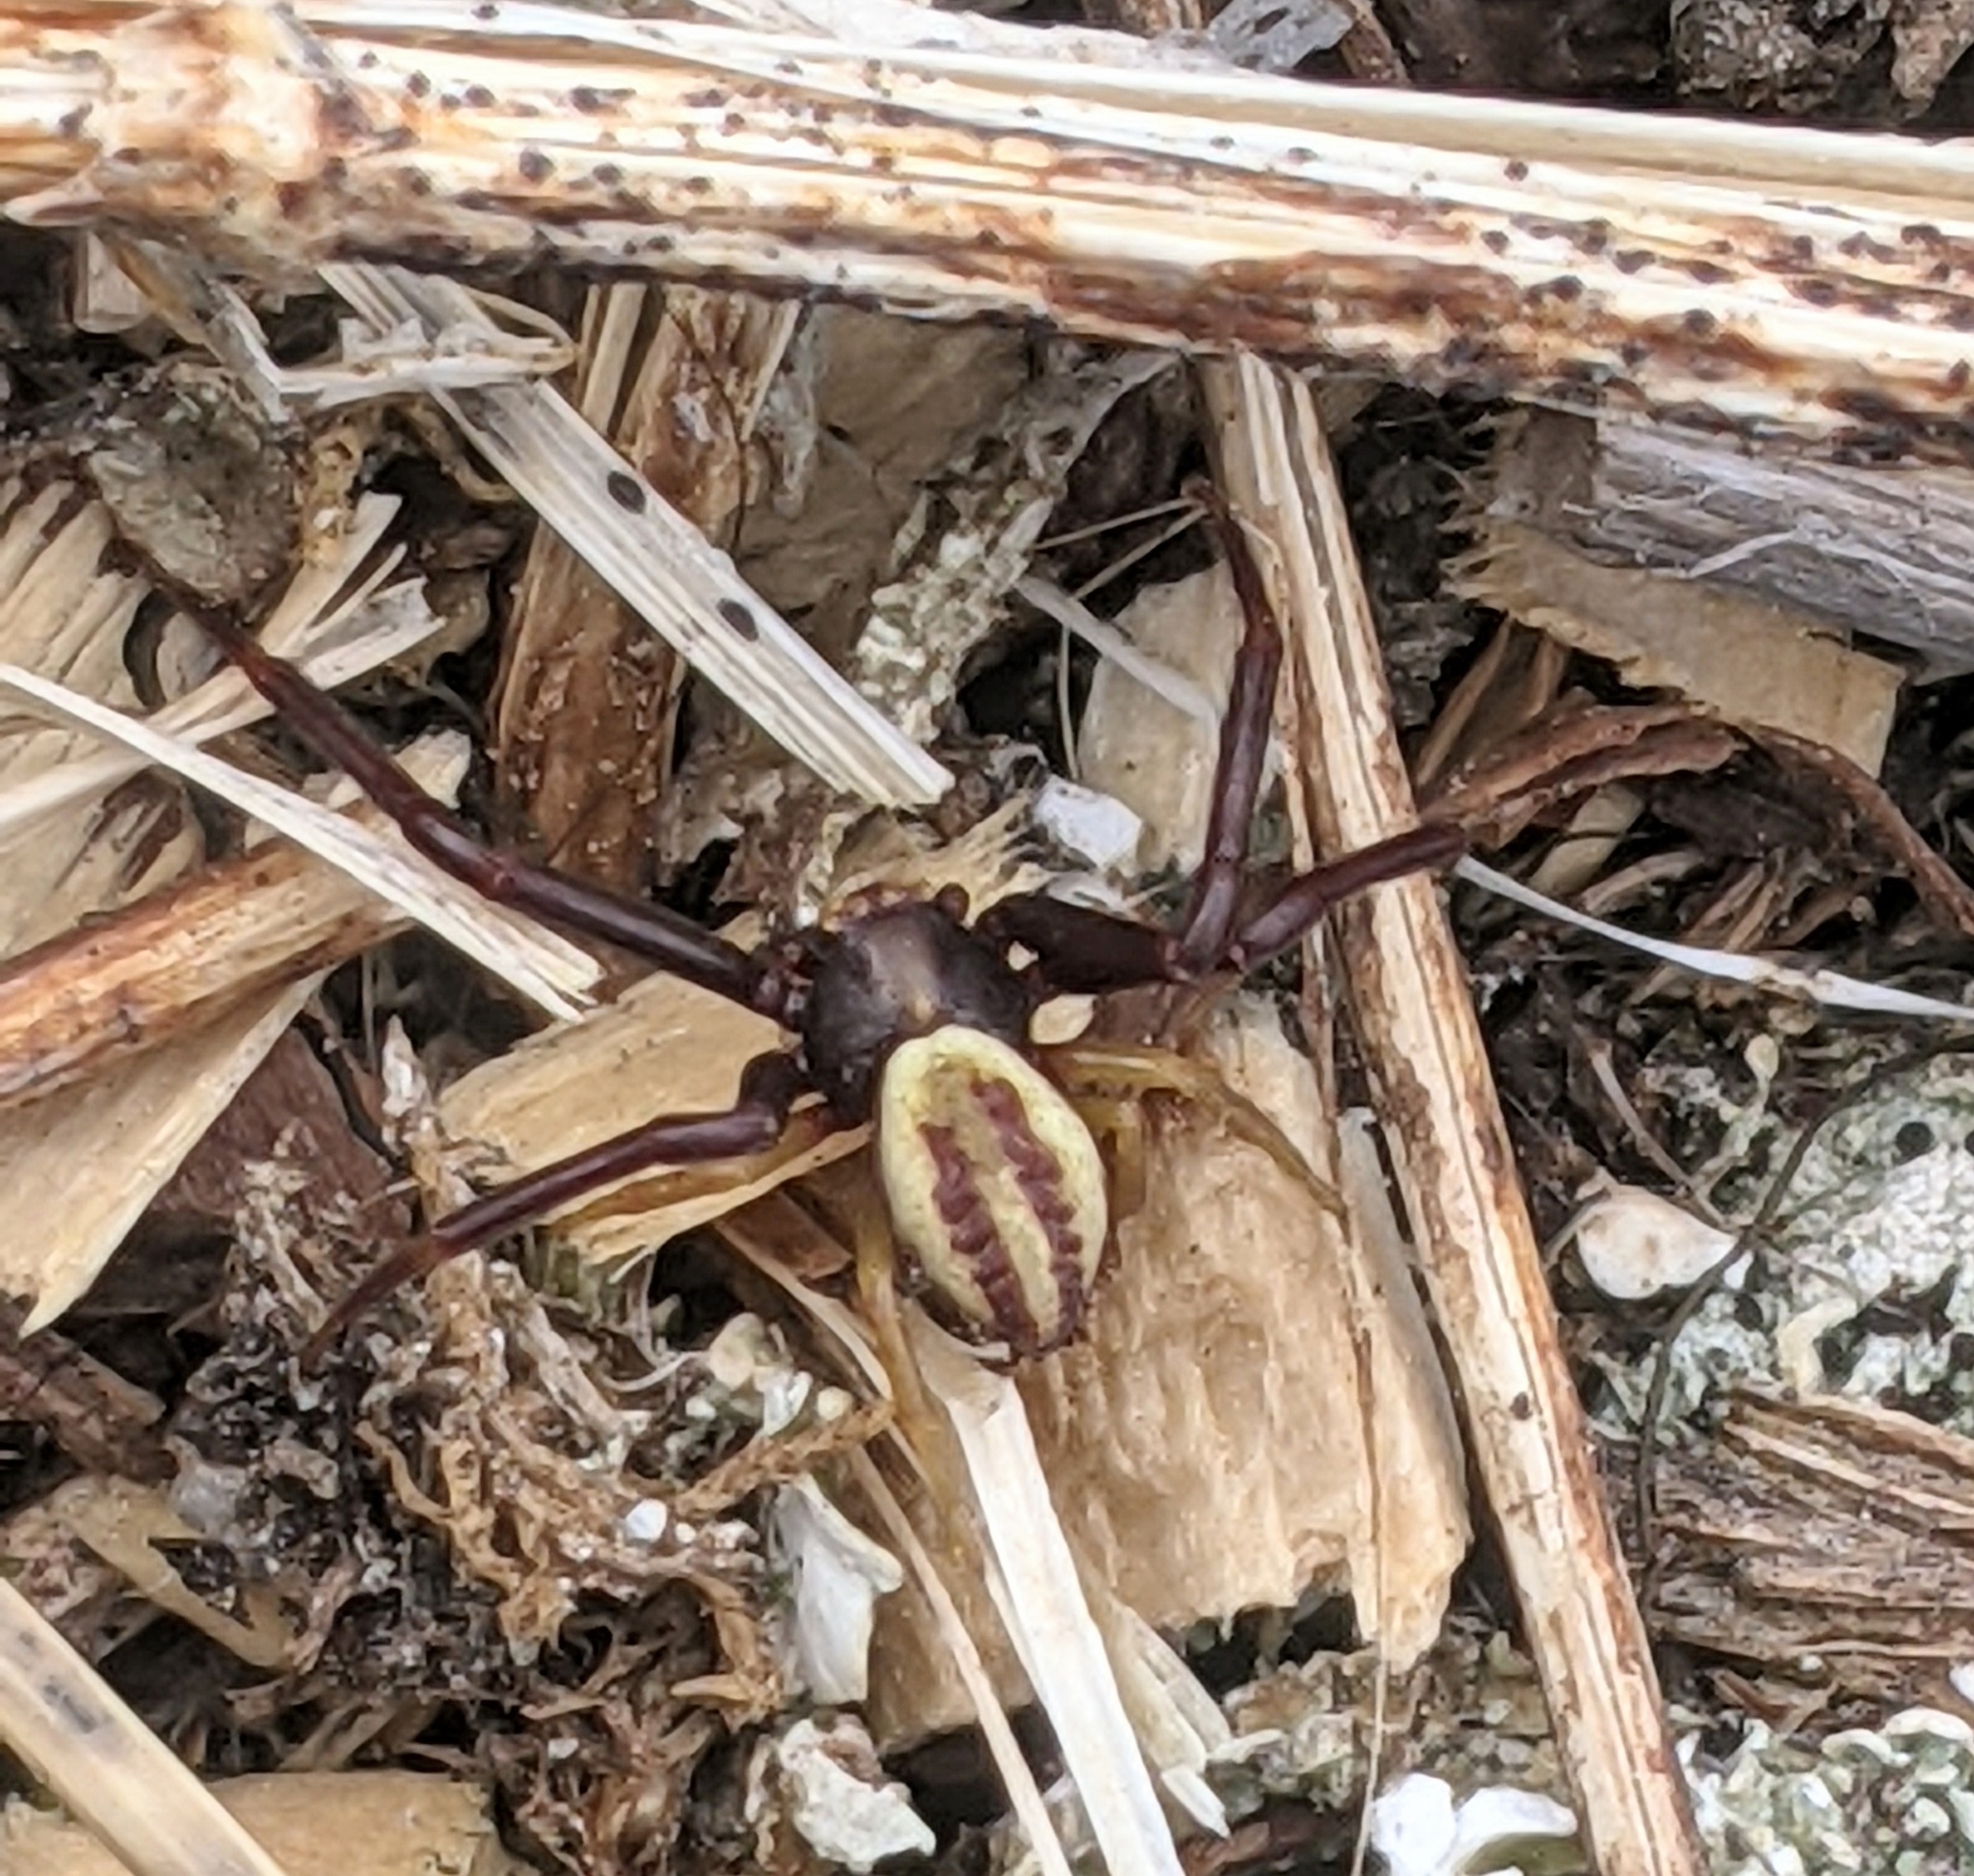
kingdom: Animalia
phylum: Arthropoda
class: Arachnida
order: Araneae
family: Thomisidae
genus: Misumena
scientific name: Misumena vatia
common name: Goldenrod crab spider
